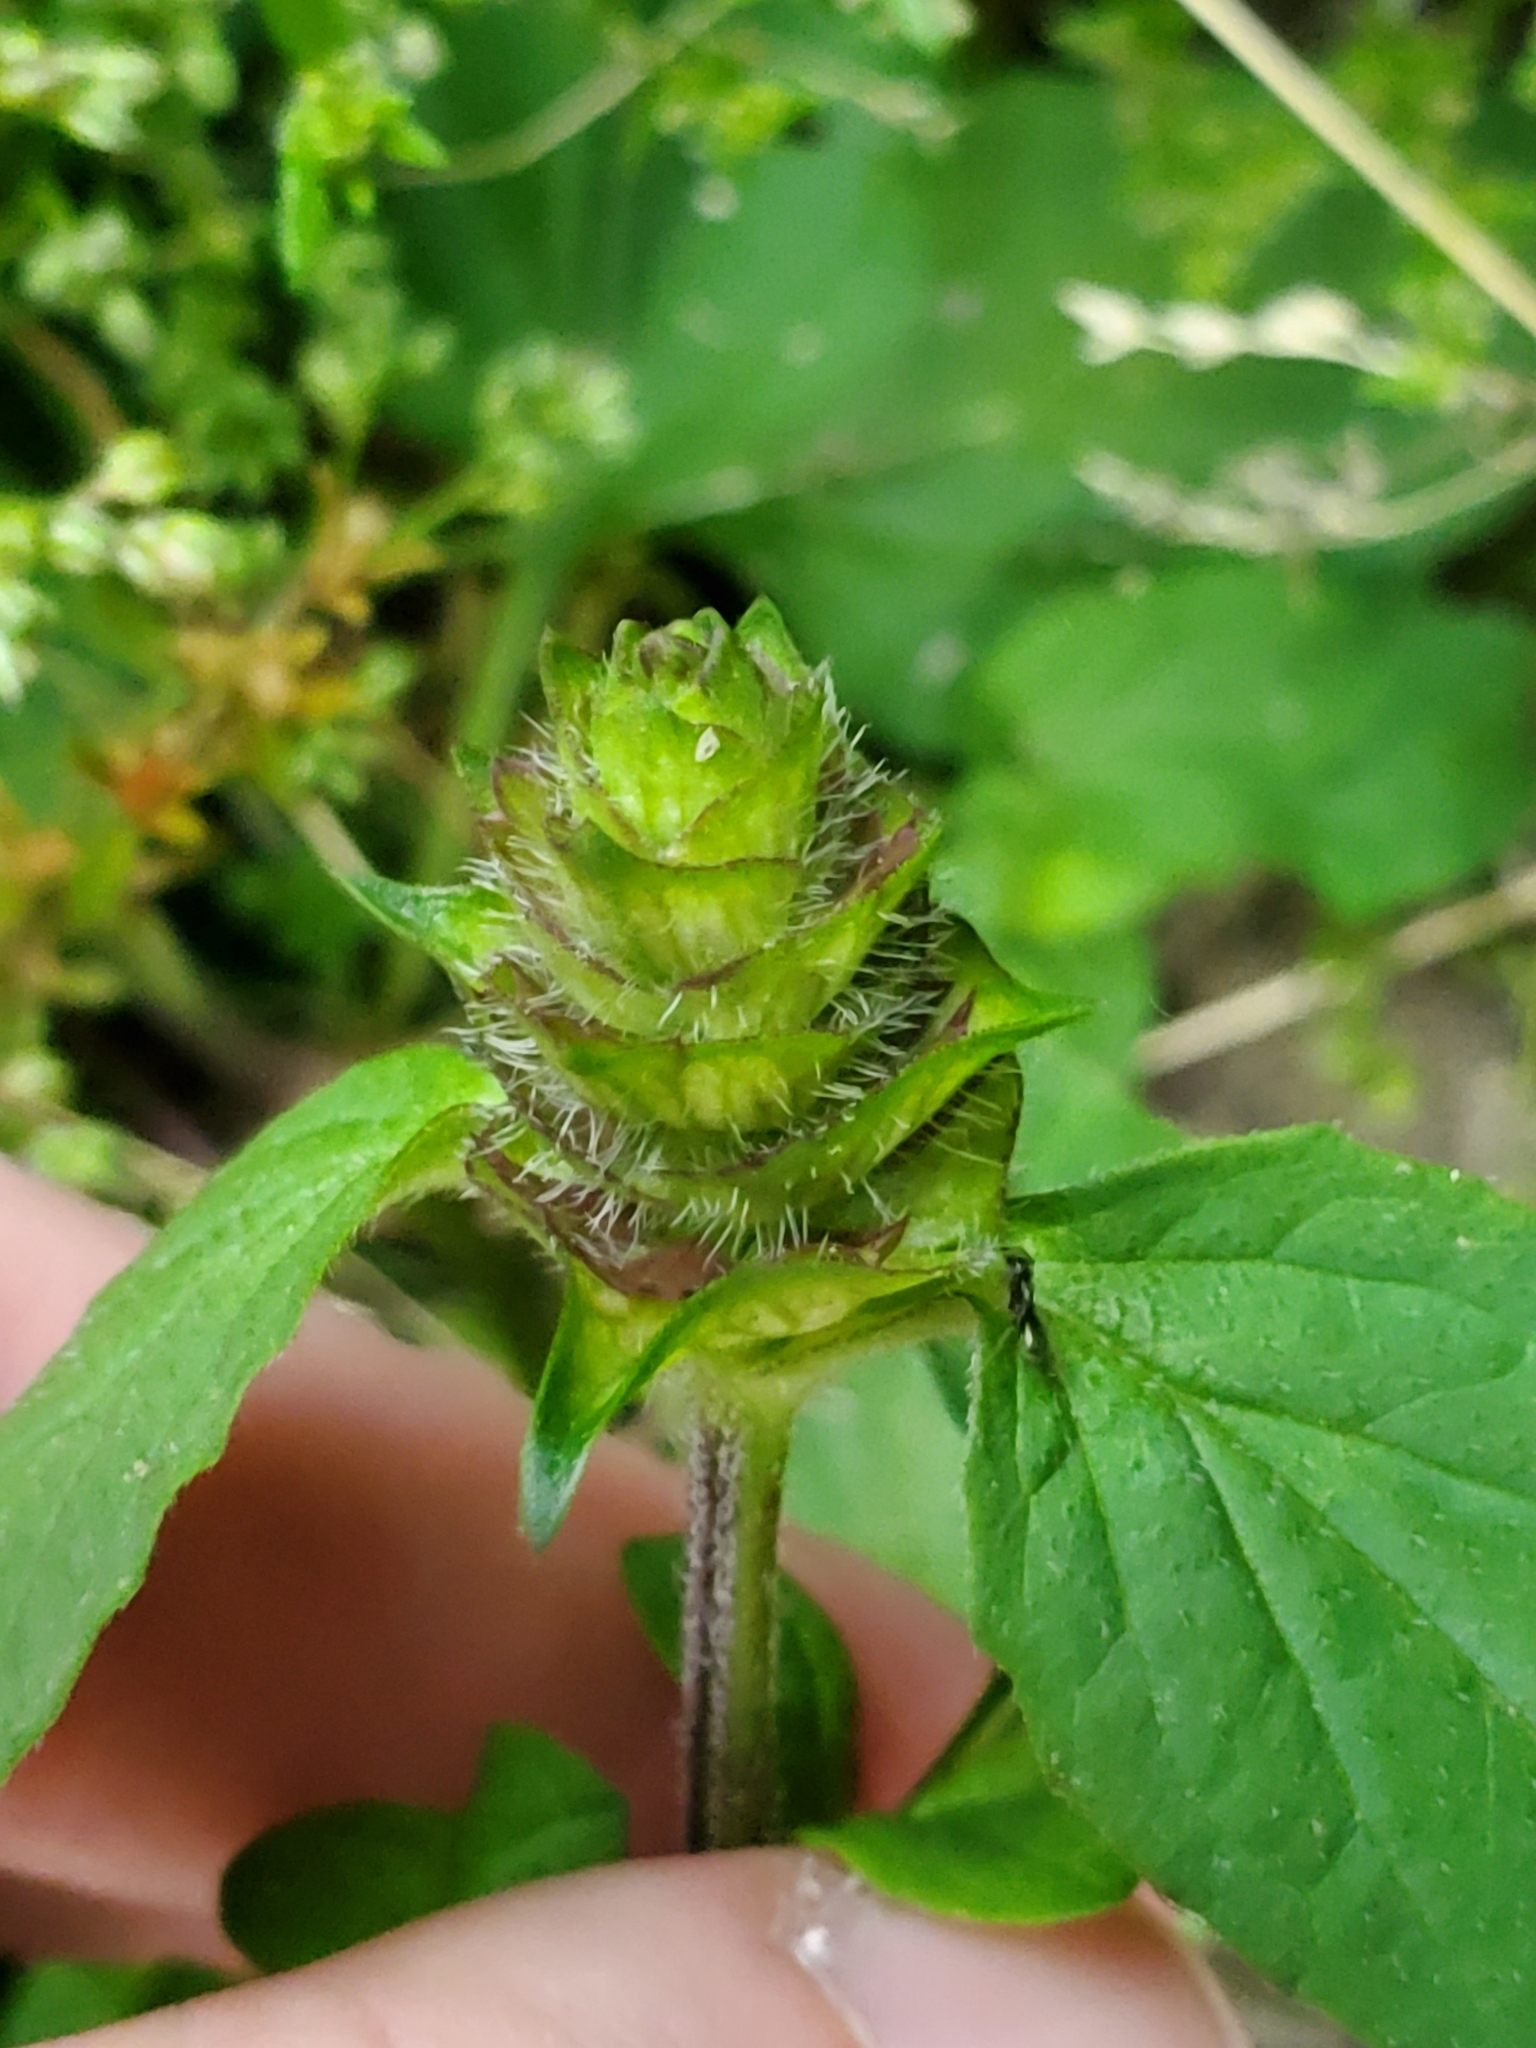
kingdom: Plantae
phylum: Tracheophyta
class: Magnoliopsida
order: Lamiales
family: Lamiaceae
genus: Prunella
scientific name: Prunella vulgaris
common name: Heal-all
